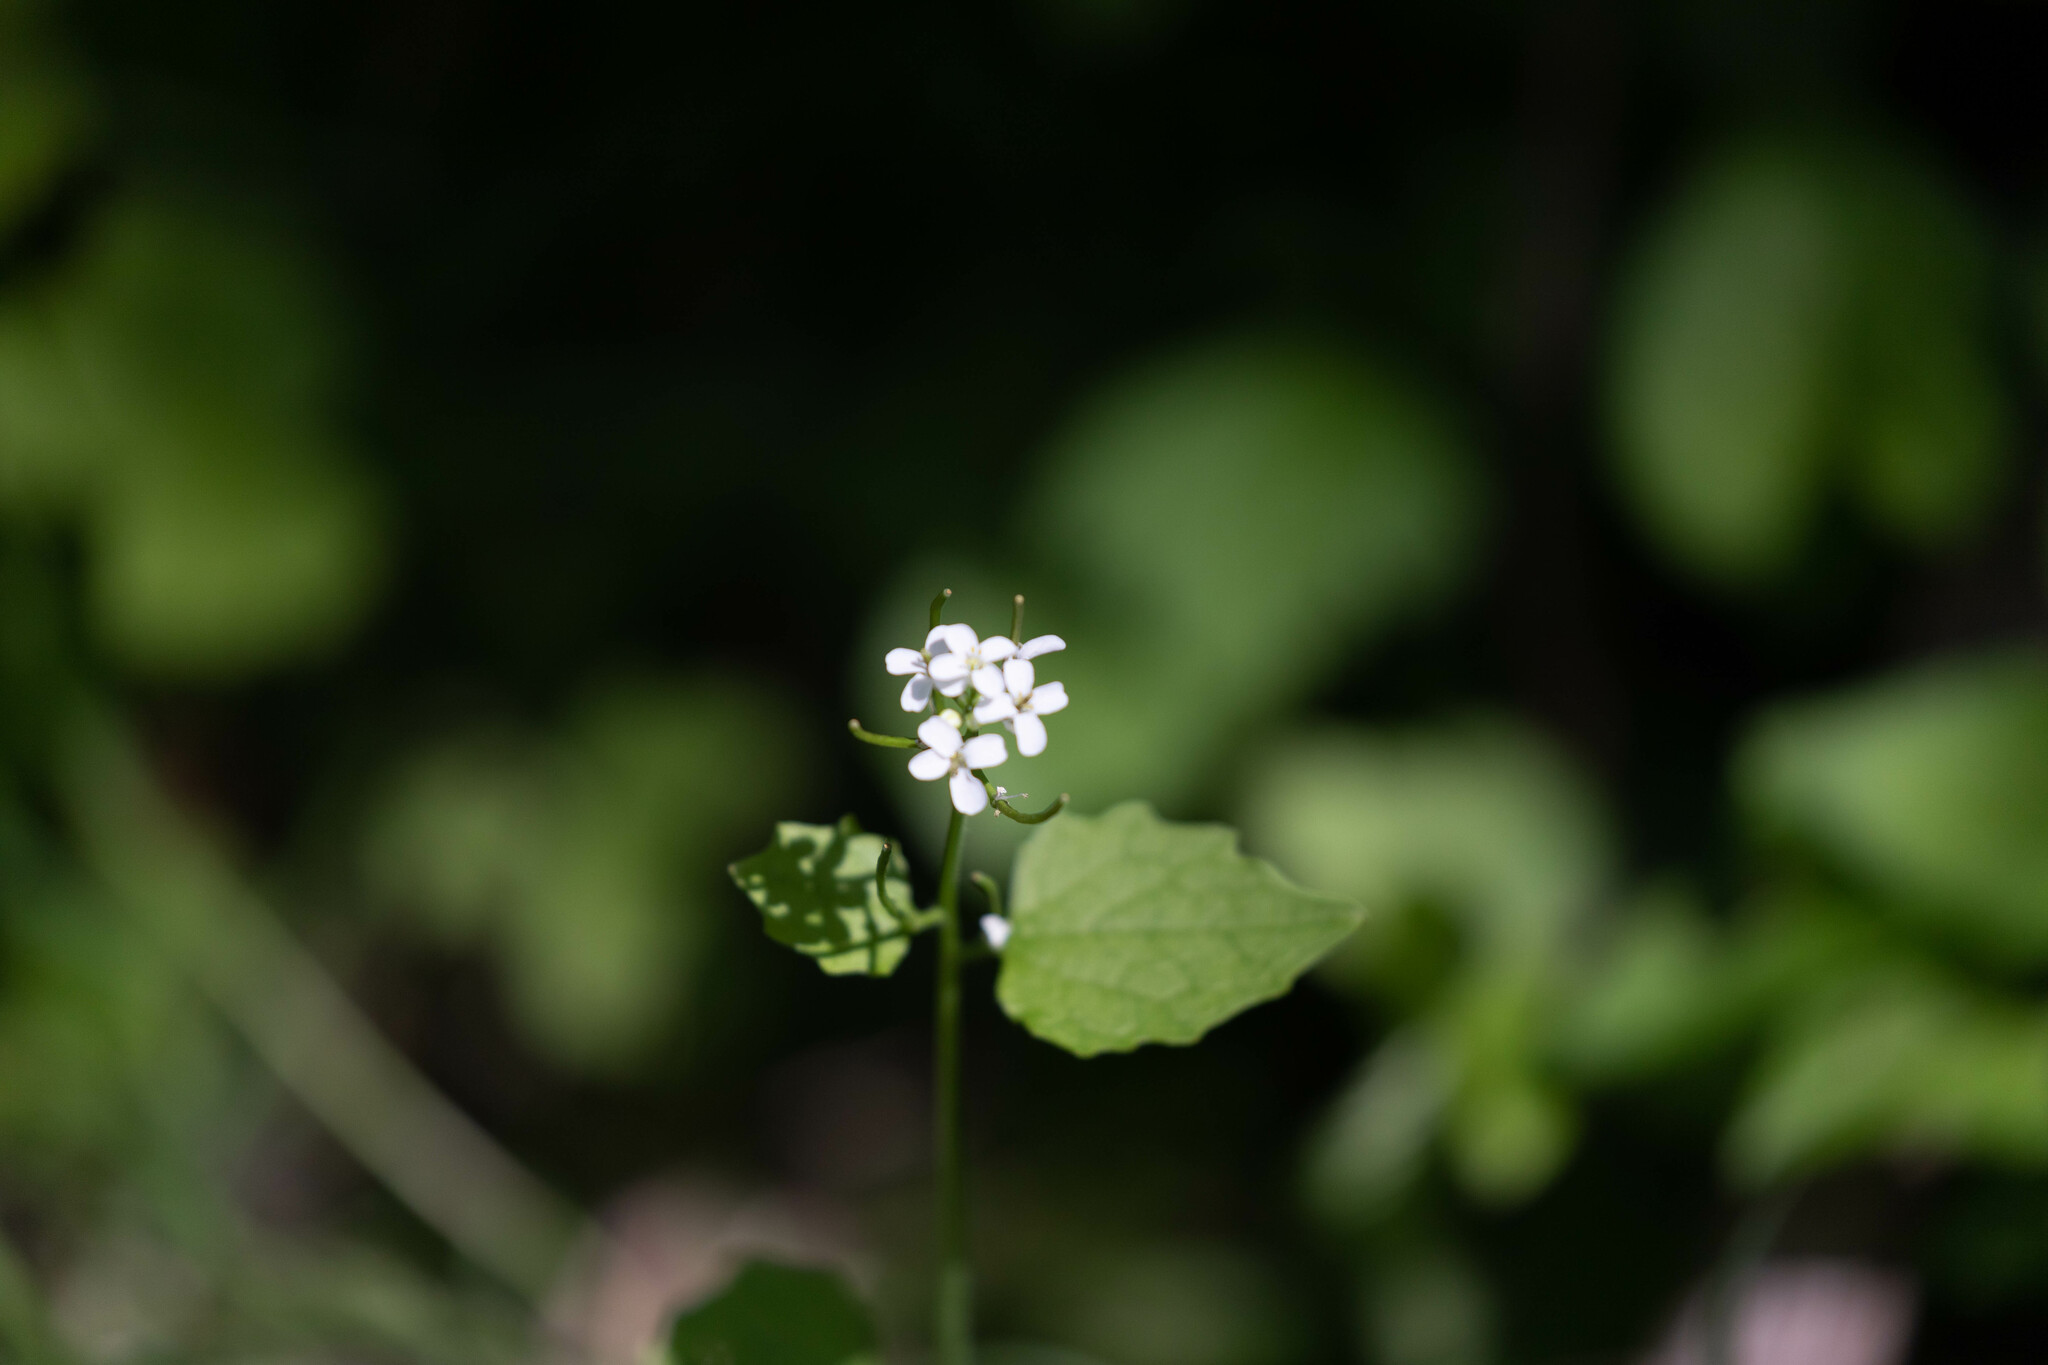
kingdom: Plantae
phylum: Tracheophyta
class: Magnoliopsida
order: Brassicales
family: Brassicaceae
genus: Alliaria
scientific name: Alliaria petiolata
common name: Garlic mustard
